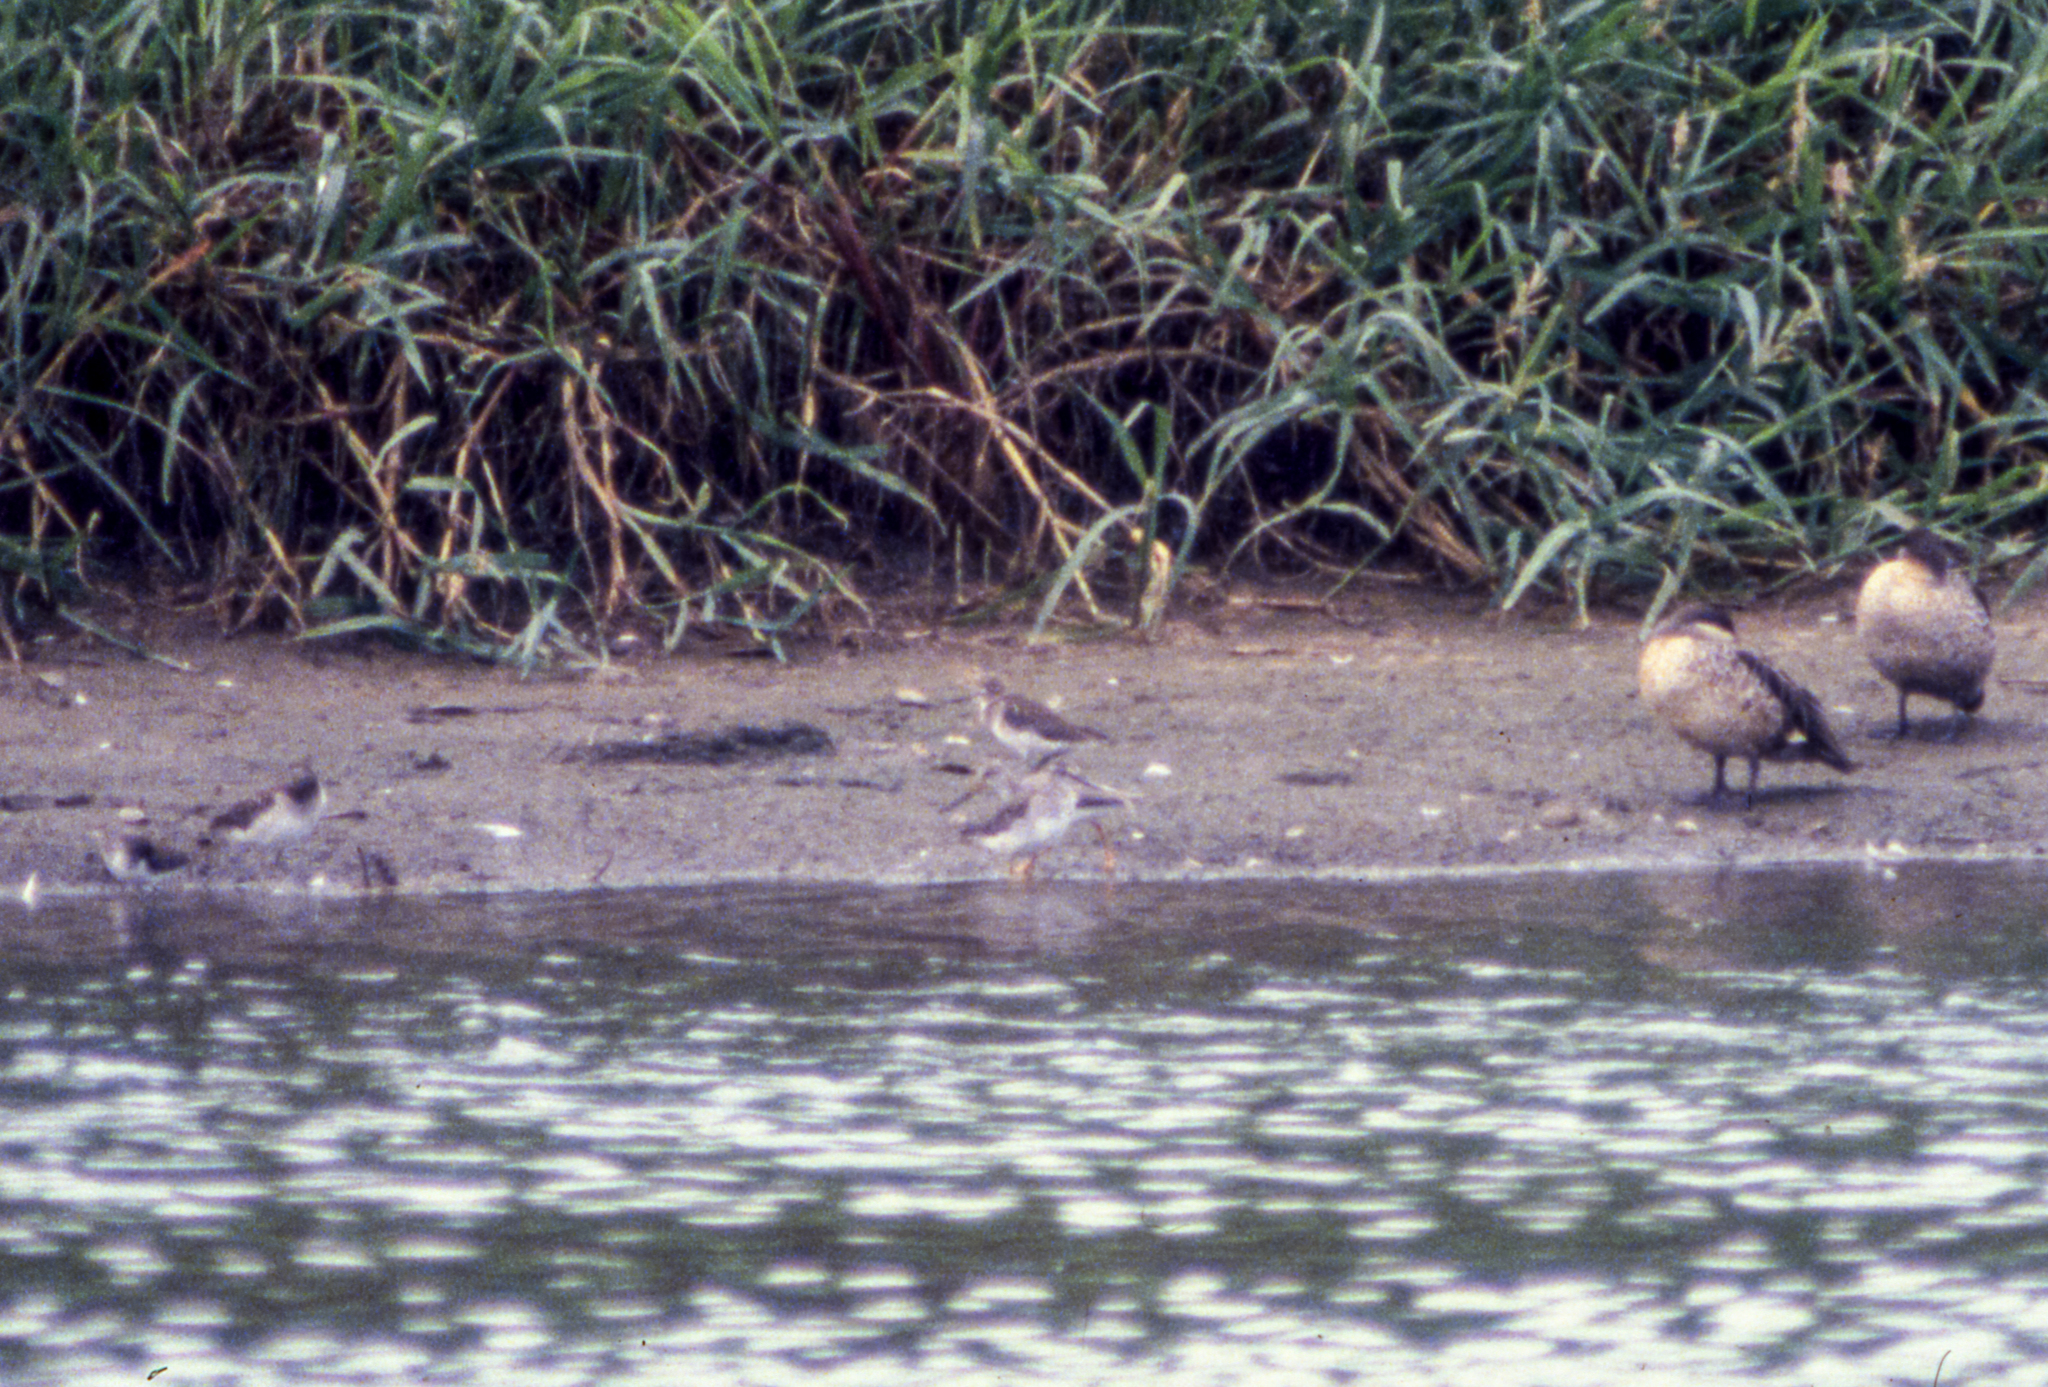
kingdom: Animalia
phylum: Chordata
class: Aves
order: Anseriformes
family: Anatidae
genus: Anas
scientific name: Anas erythrorhyncha
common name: Red-billed teal
